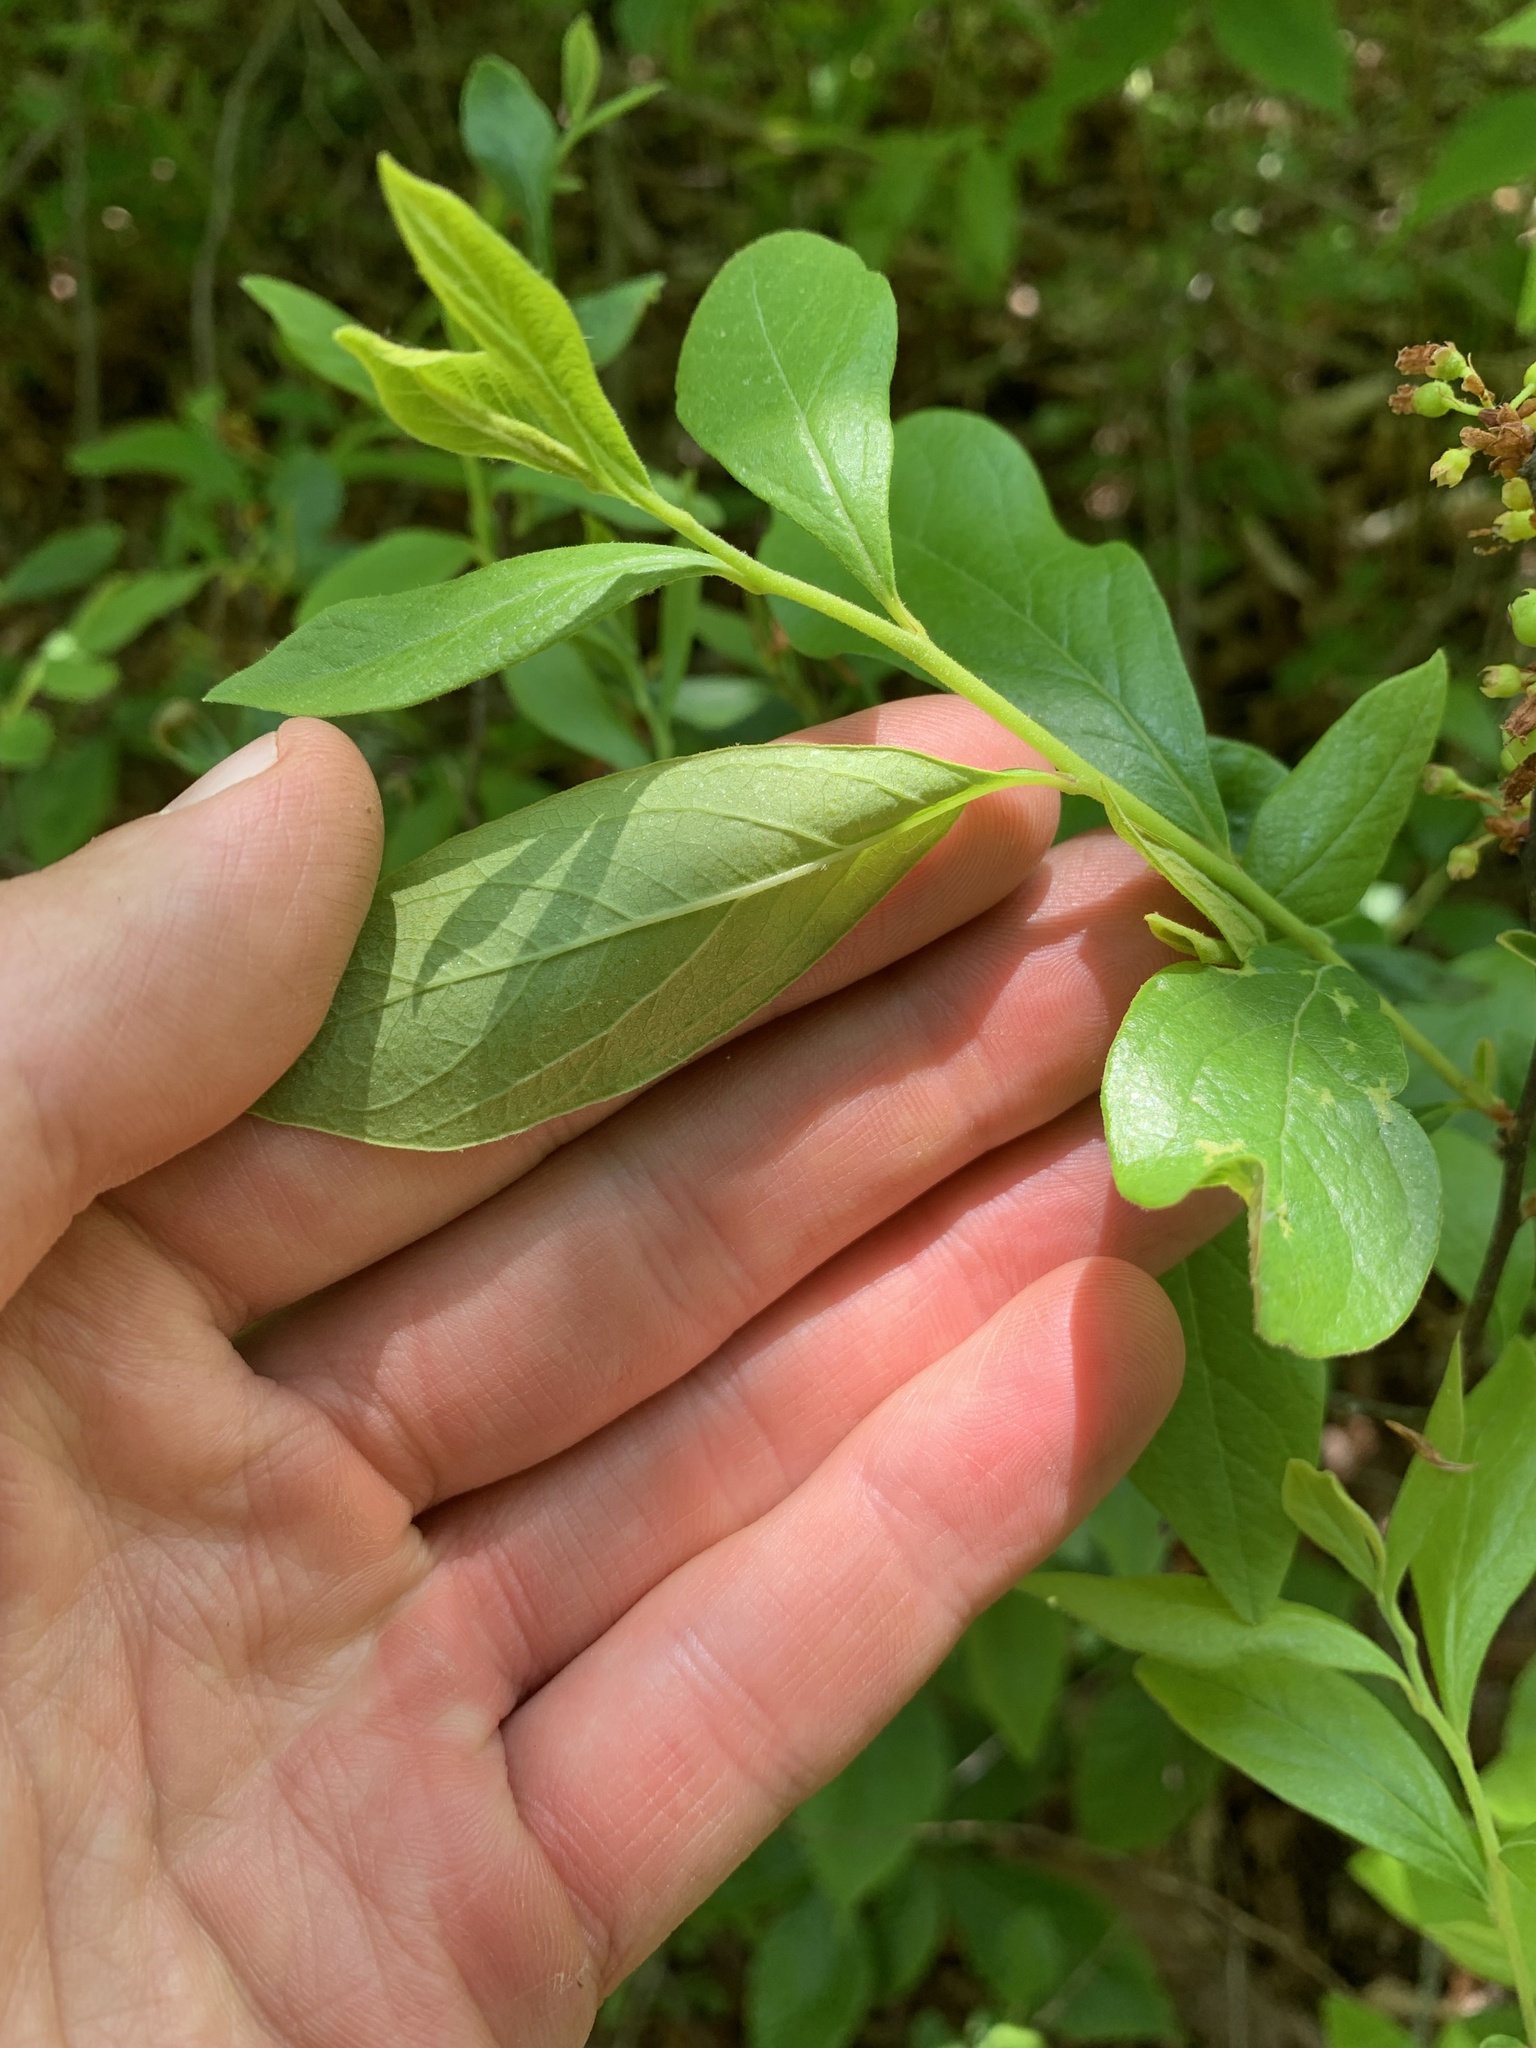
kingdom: Plantae
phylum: Tracheophyta
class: Magnoliopsida
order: Ericales
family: Ericaceae
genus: Gaylussacia
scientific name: Gaylussacia baccata
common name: Black huckleberry
